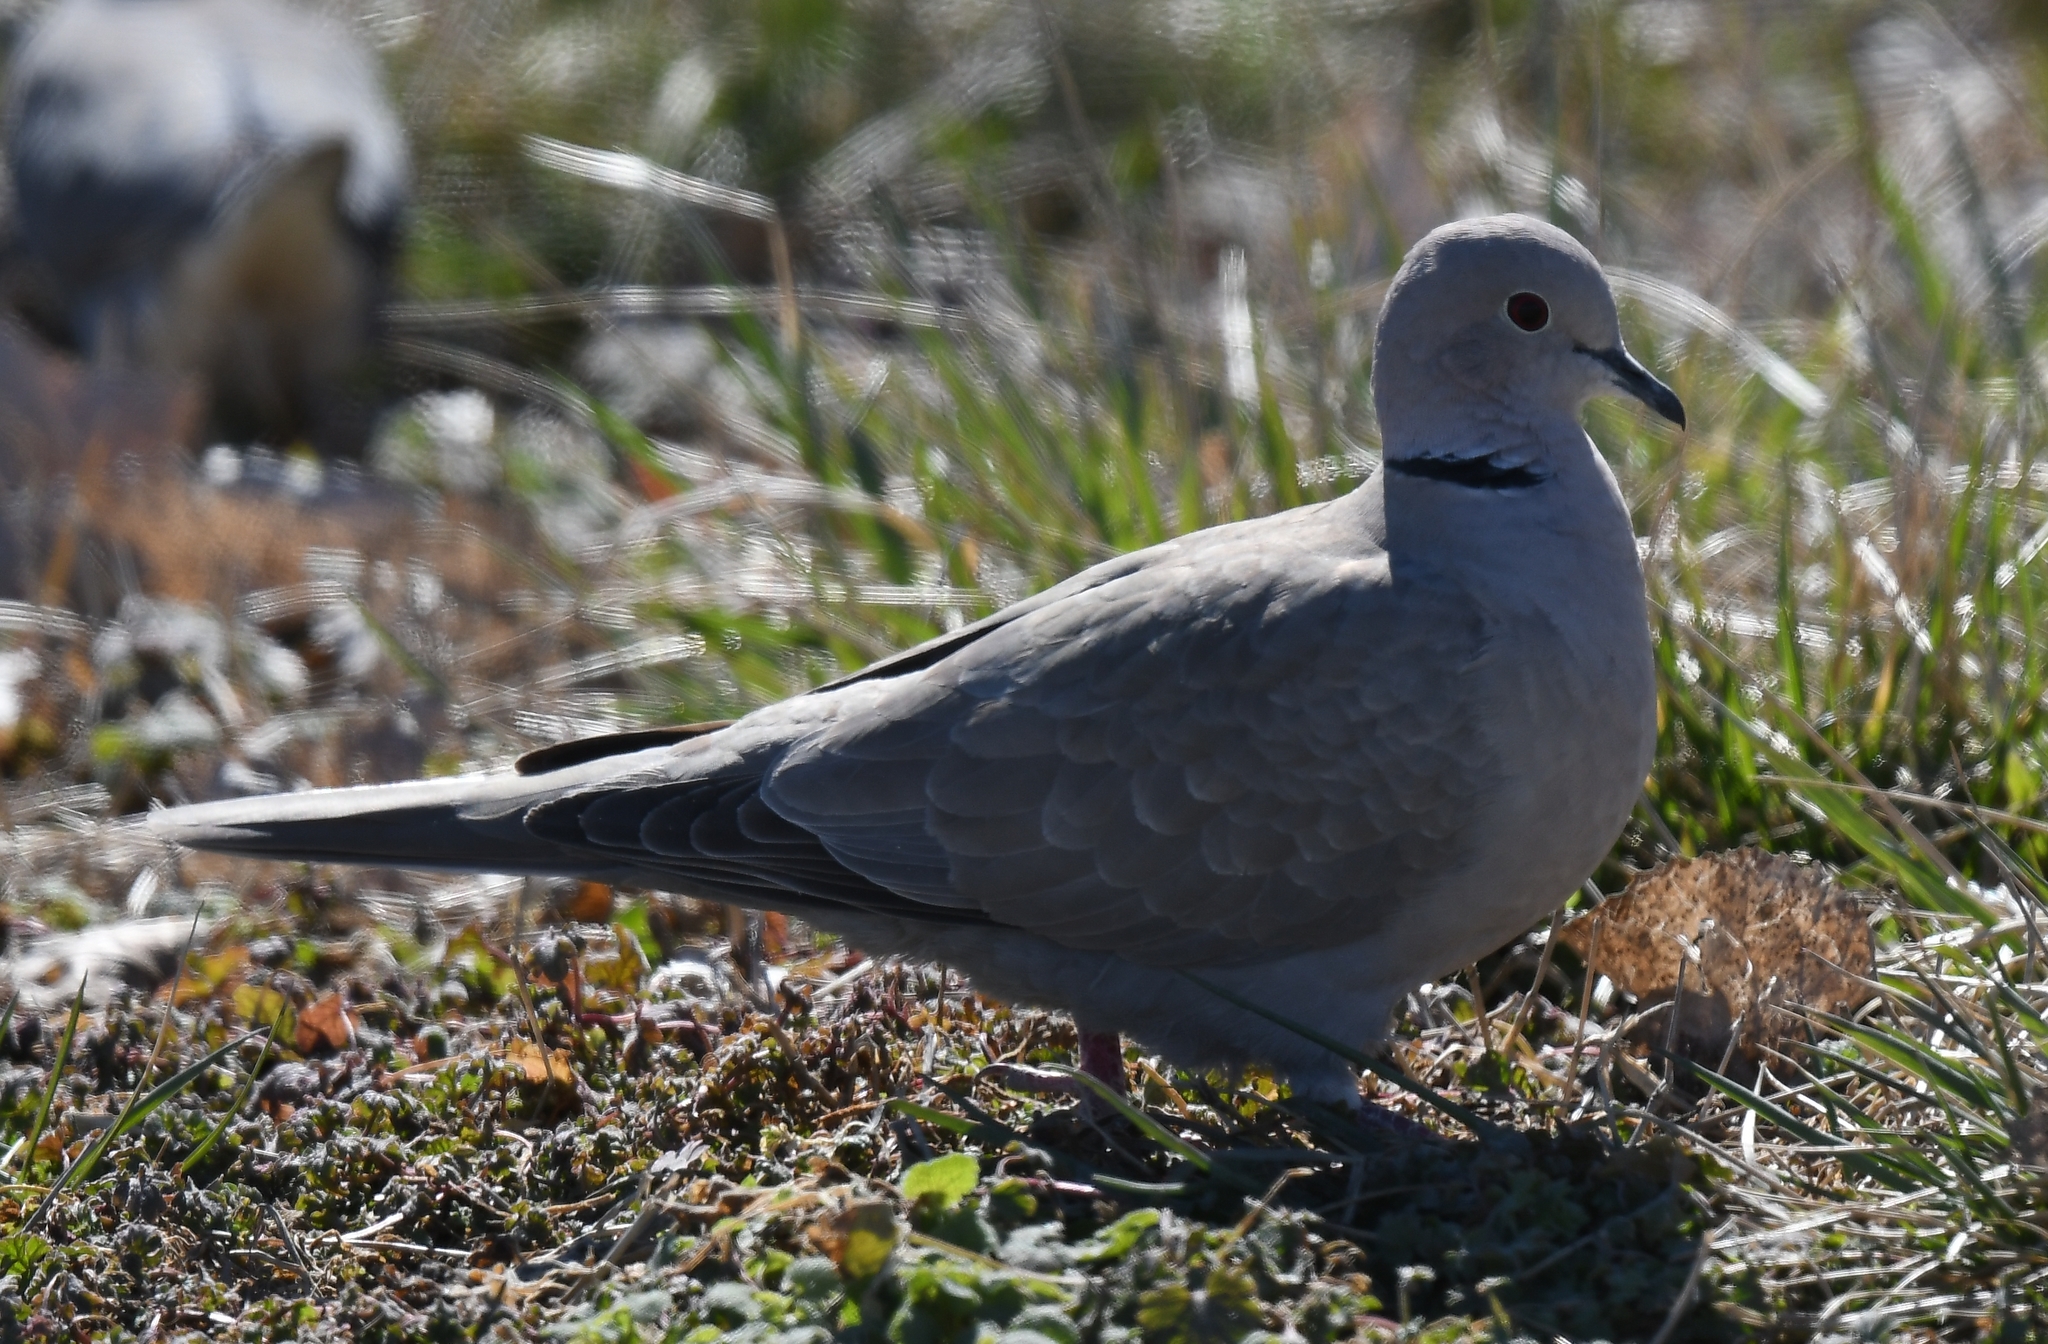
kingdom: Animalia
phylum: Chordata
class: Aves
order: Columbiformes
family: Columbidae
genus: Streptopelia
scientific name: Streptopelia decaocto
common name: Eurasian collared dove
